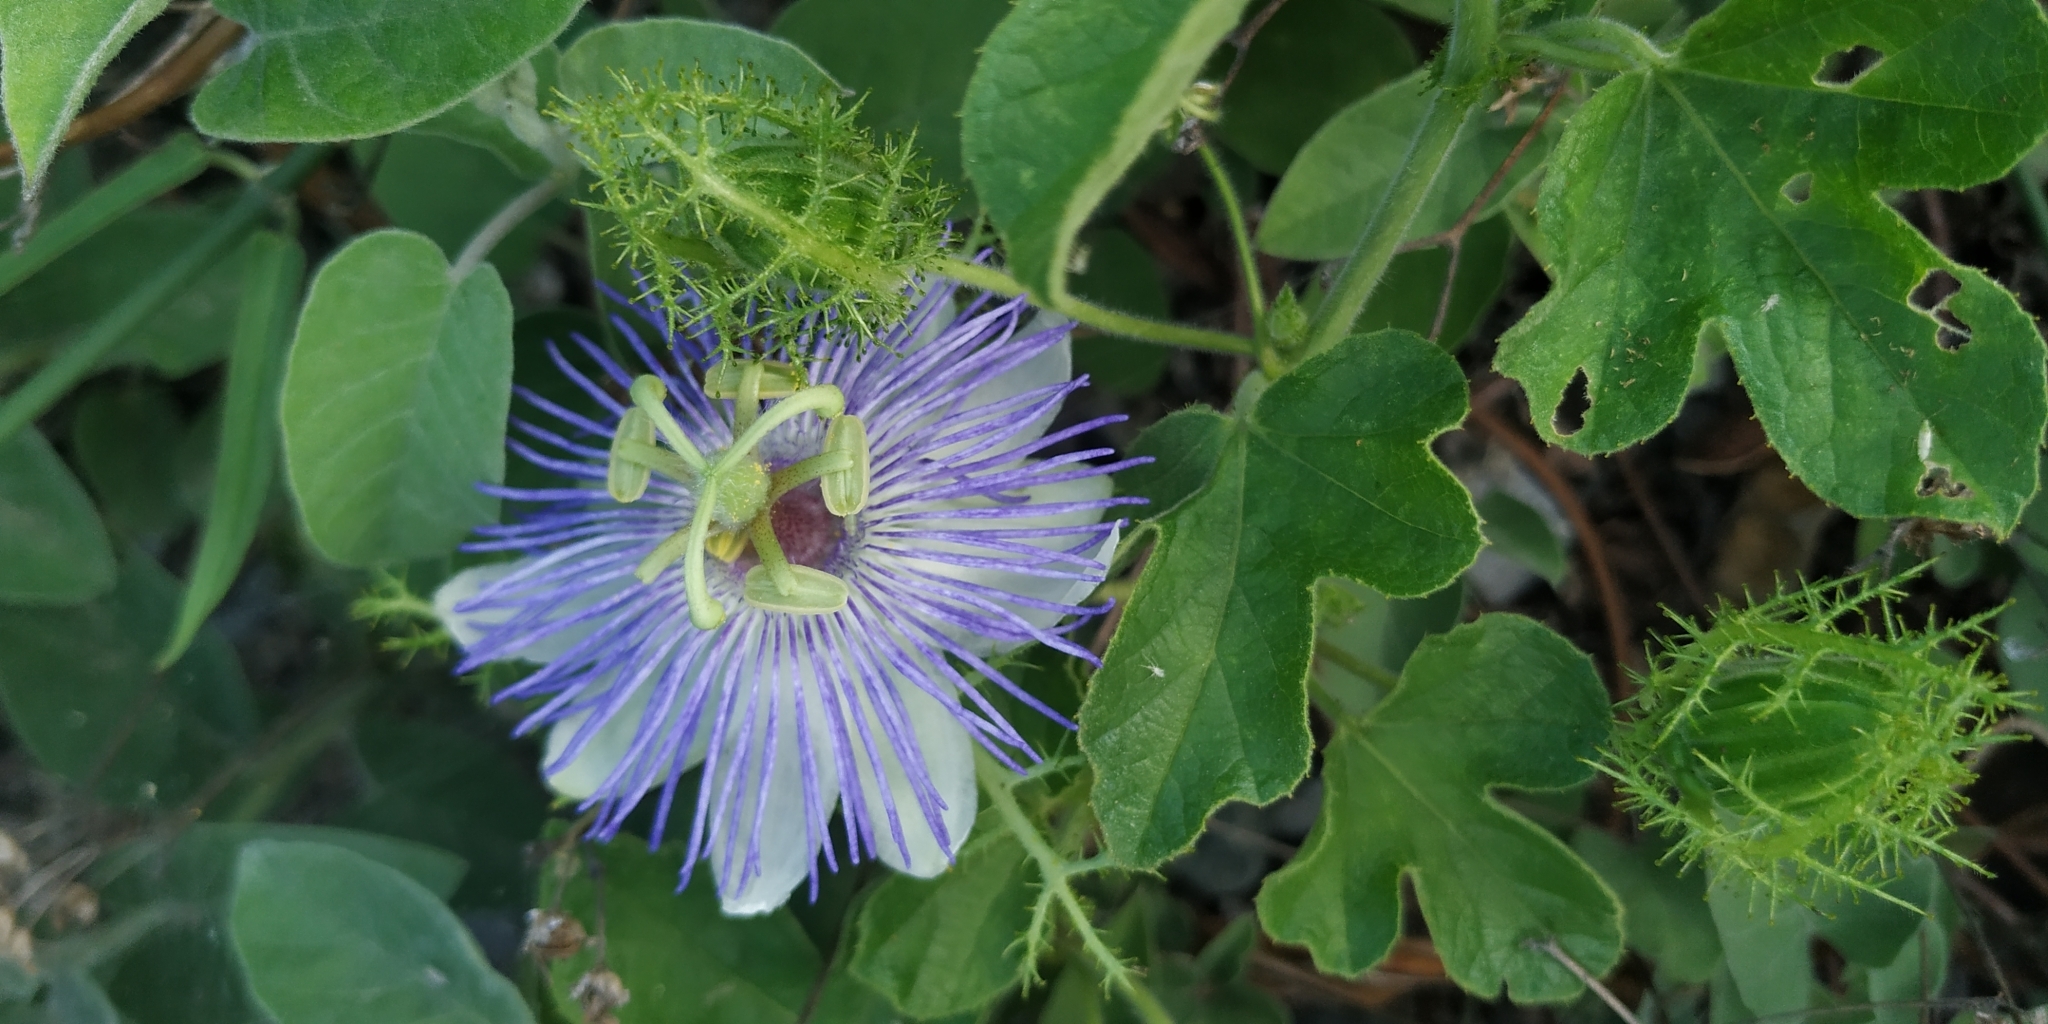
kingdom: Plantae
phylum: Tracheophyta
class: Magnoliopsida
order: Malpighiales
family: Passifloraceae
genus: Passiflora
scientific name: Passiflora foetida
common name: Fetid passionflower
